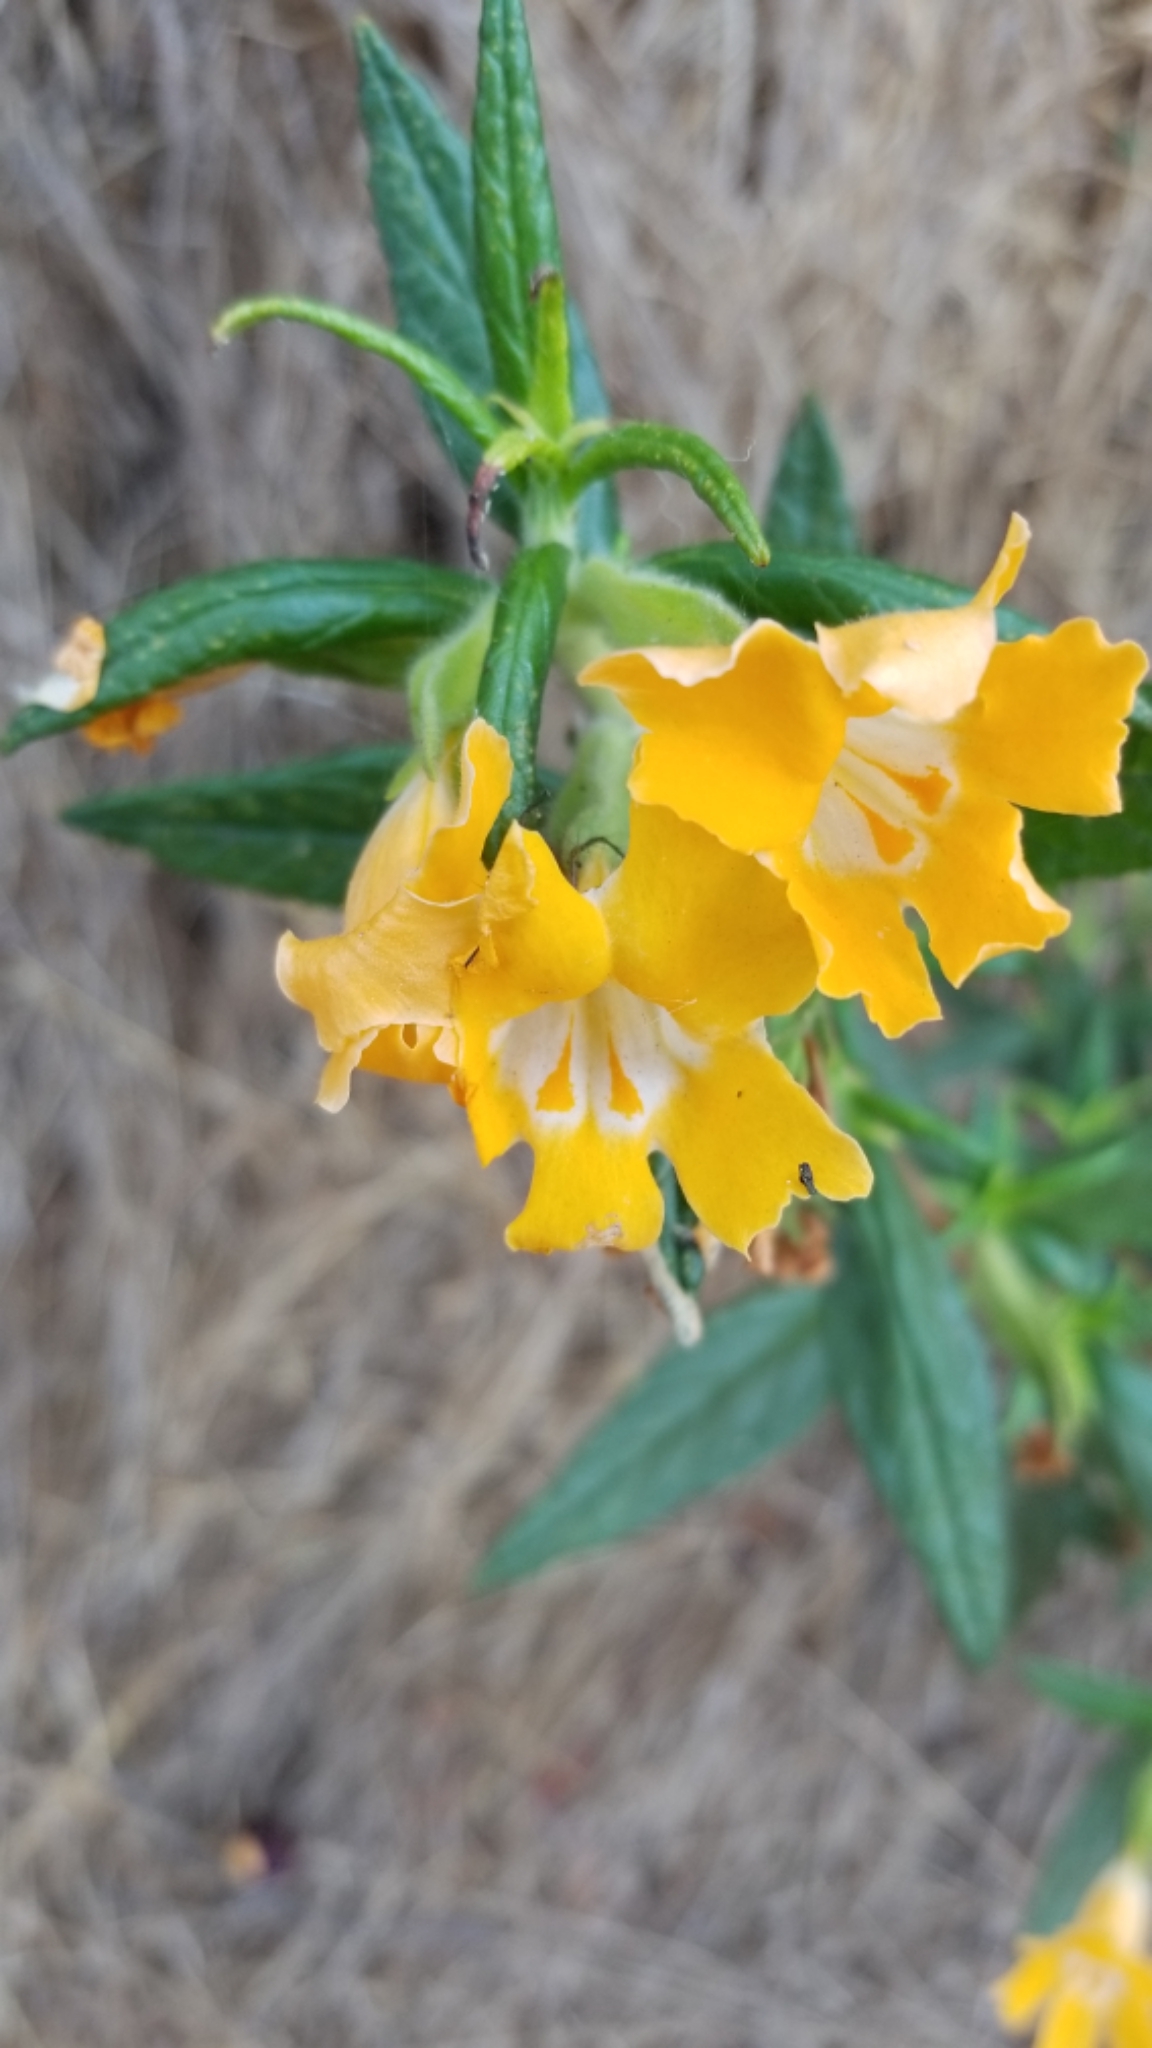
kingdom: Plantae
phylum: Tracheophyta
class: Magnoliopsida
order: Lamiales
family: Phrymaceae
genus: Diplacus
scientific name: Diplacus longiflorus
